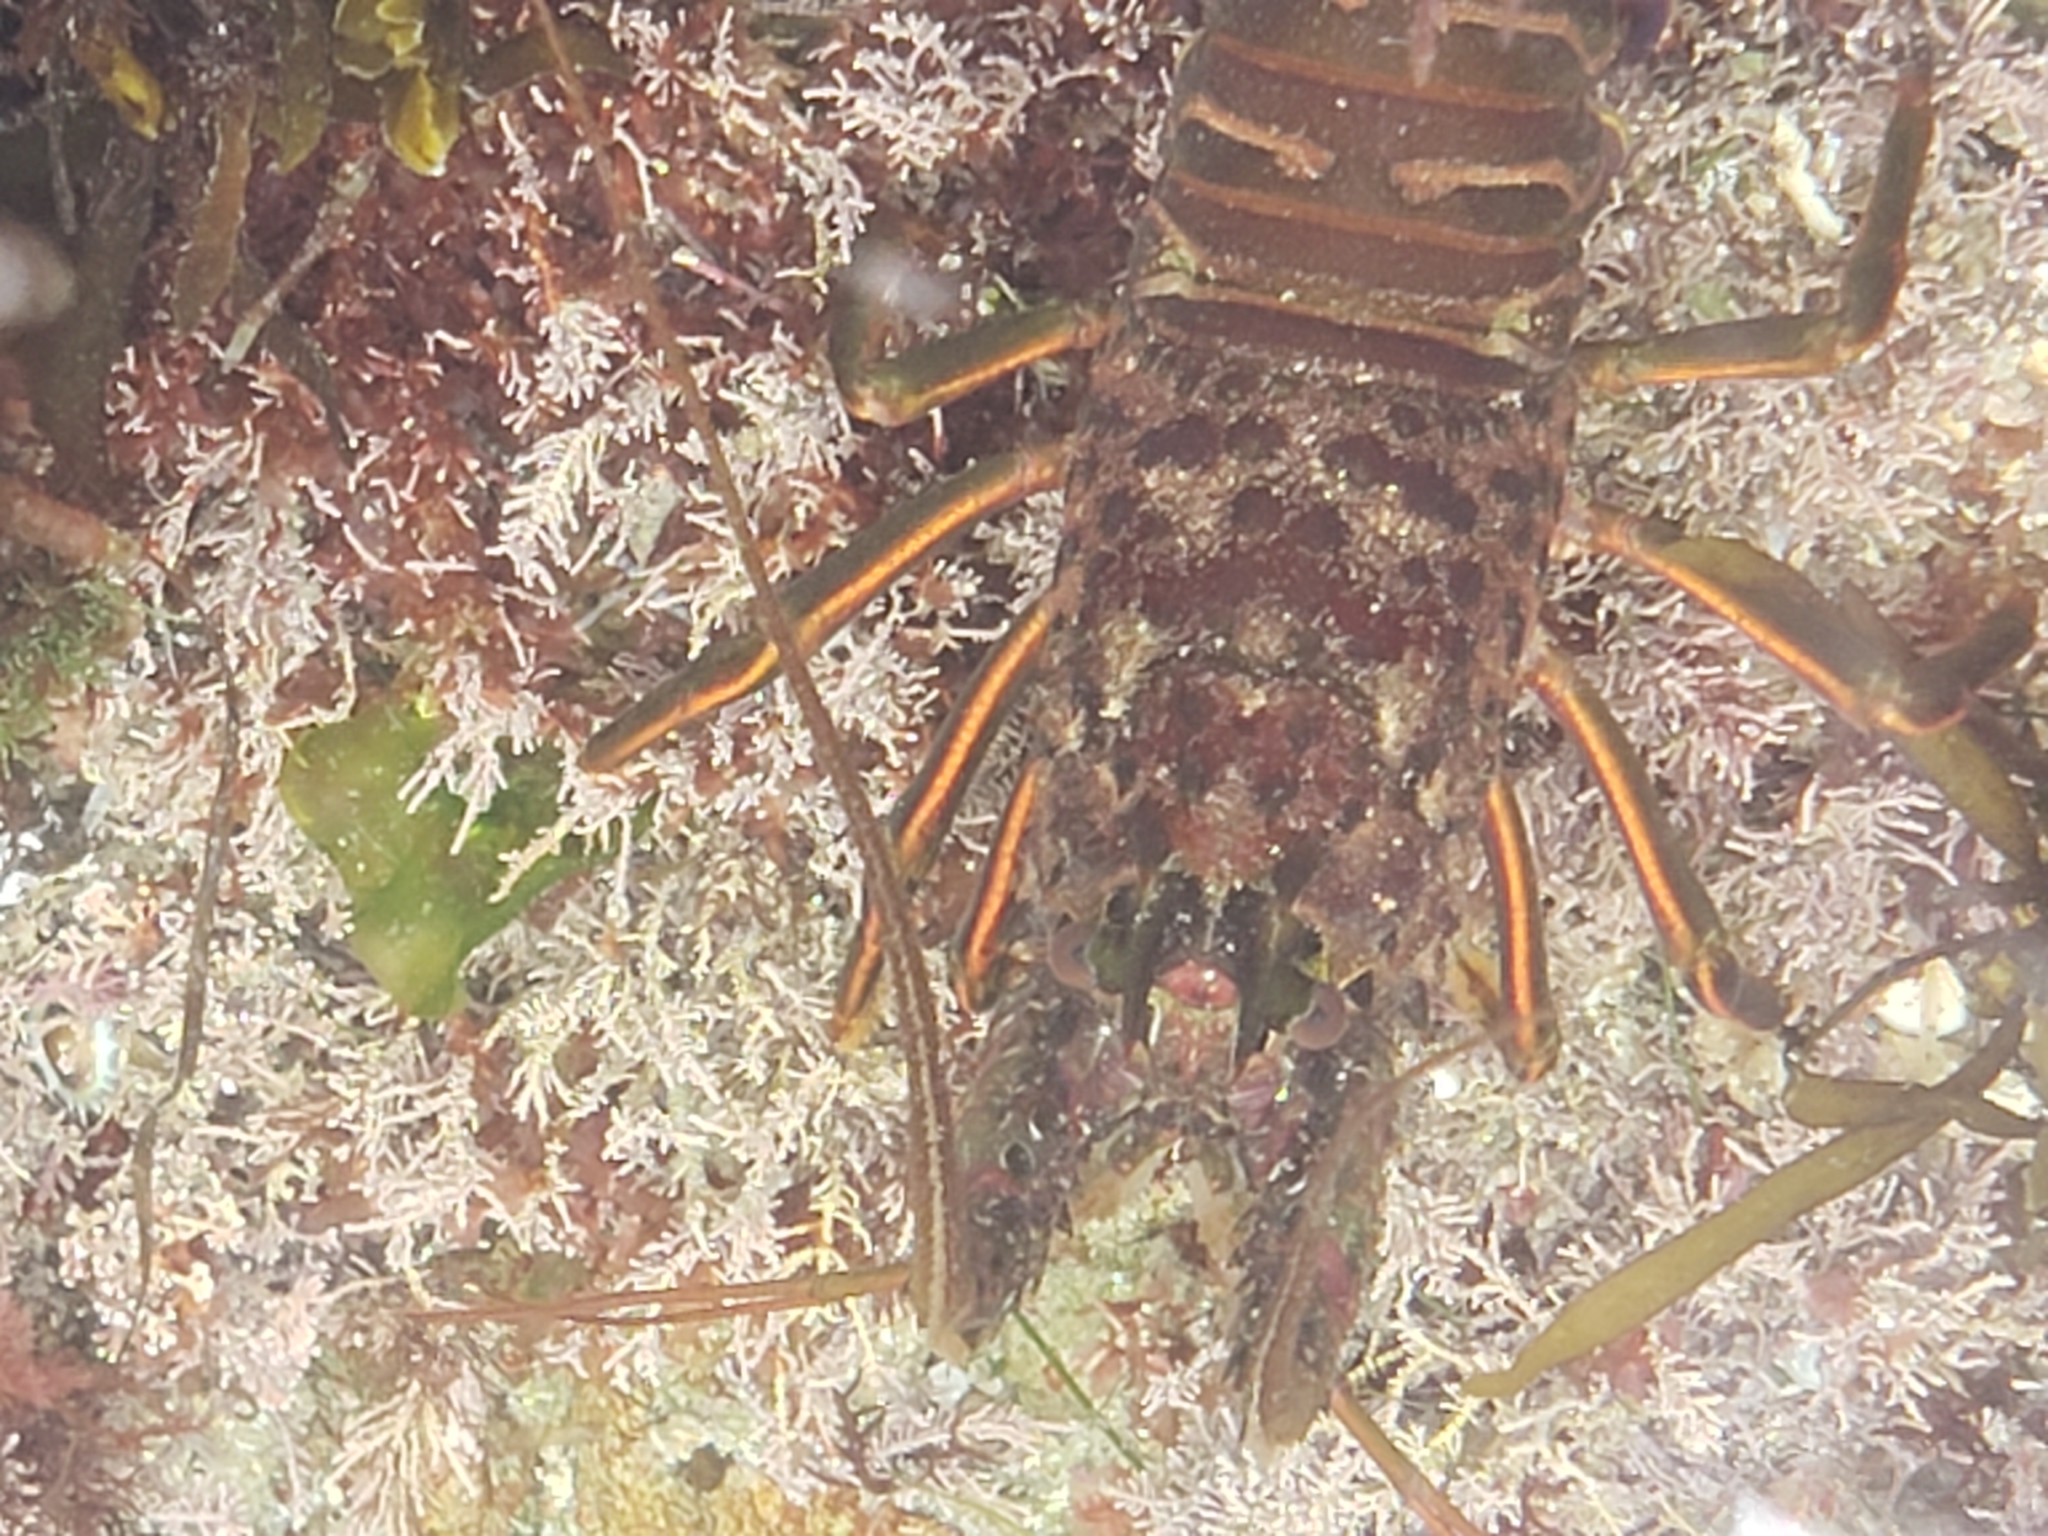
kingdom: Animalia
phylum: Arthropoda
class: Malacostraca
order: Decapoda
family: Palinuridae
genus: Panulirus
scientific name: Panulirus interruptus
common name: California spiny lobster
